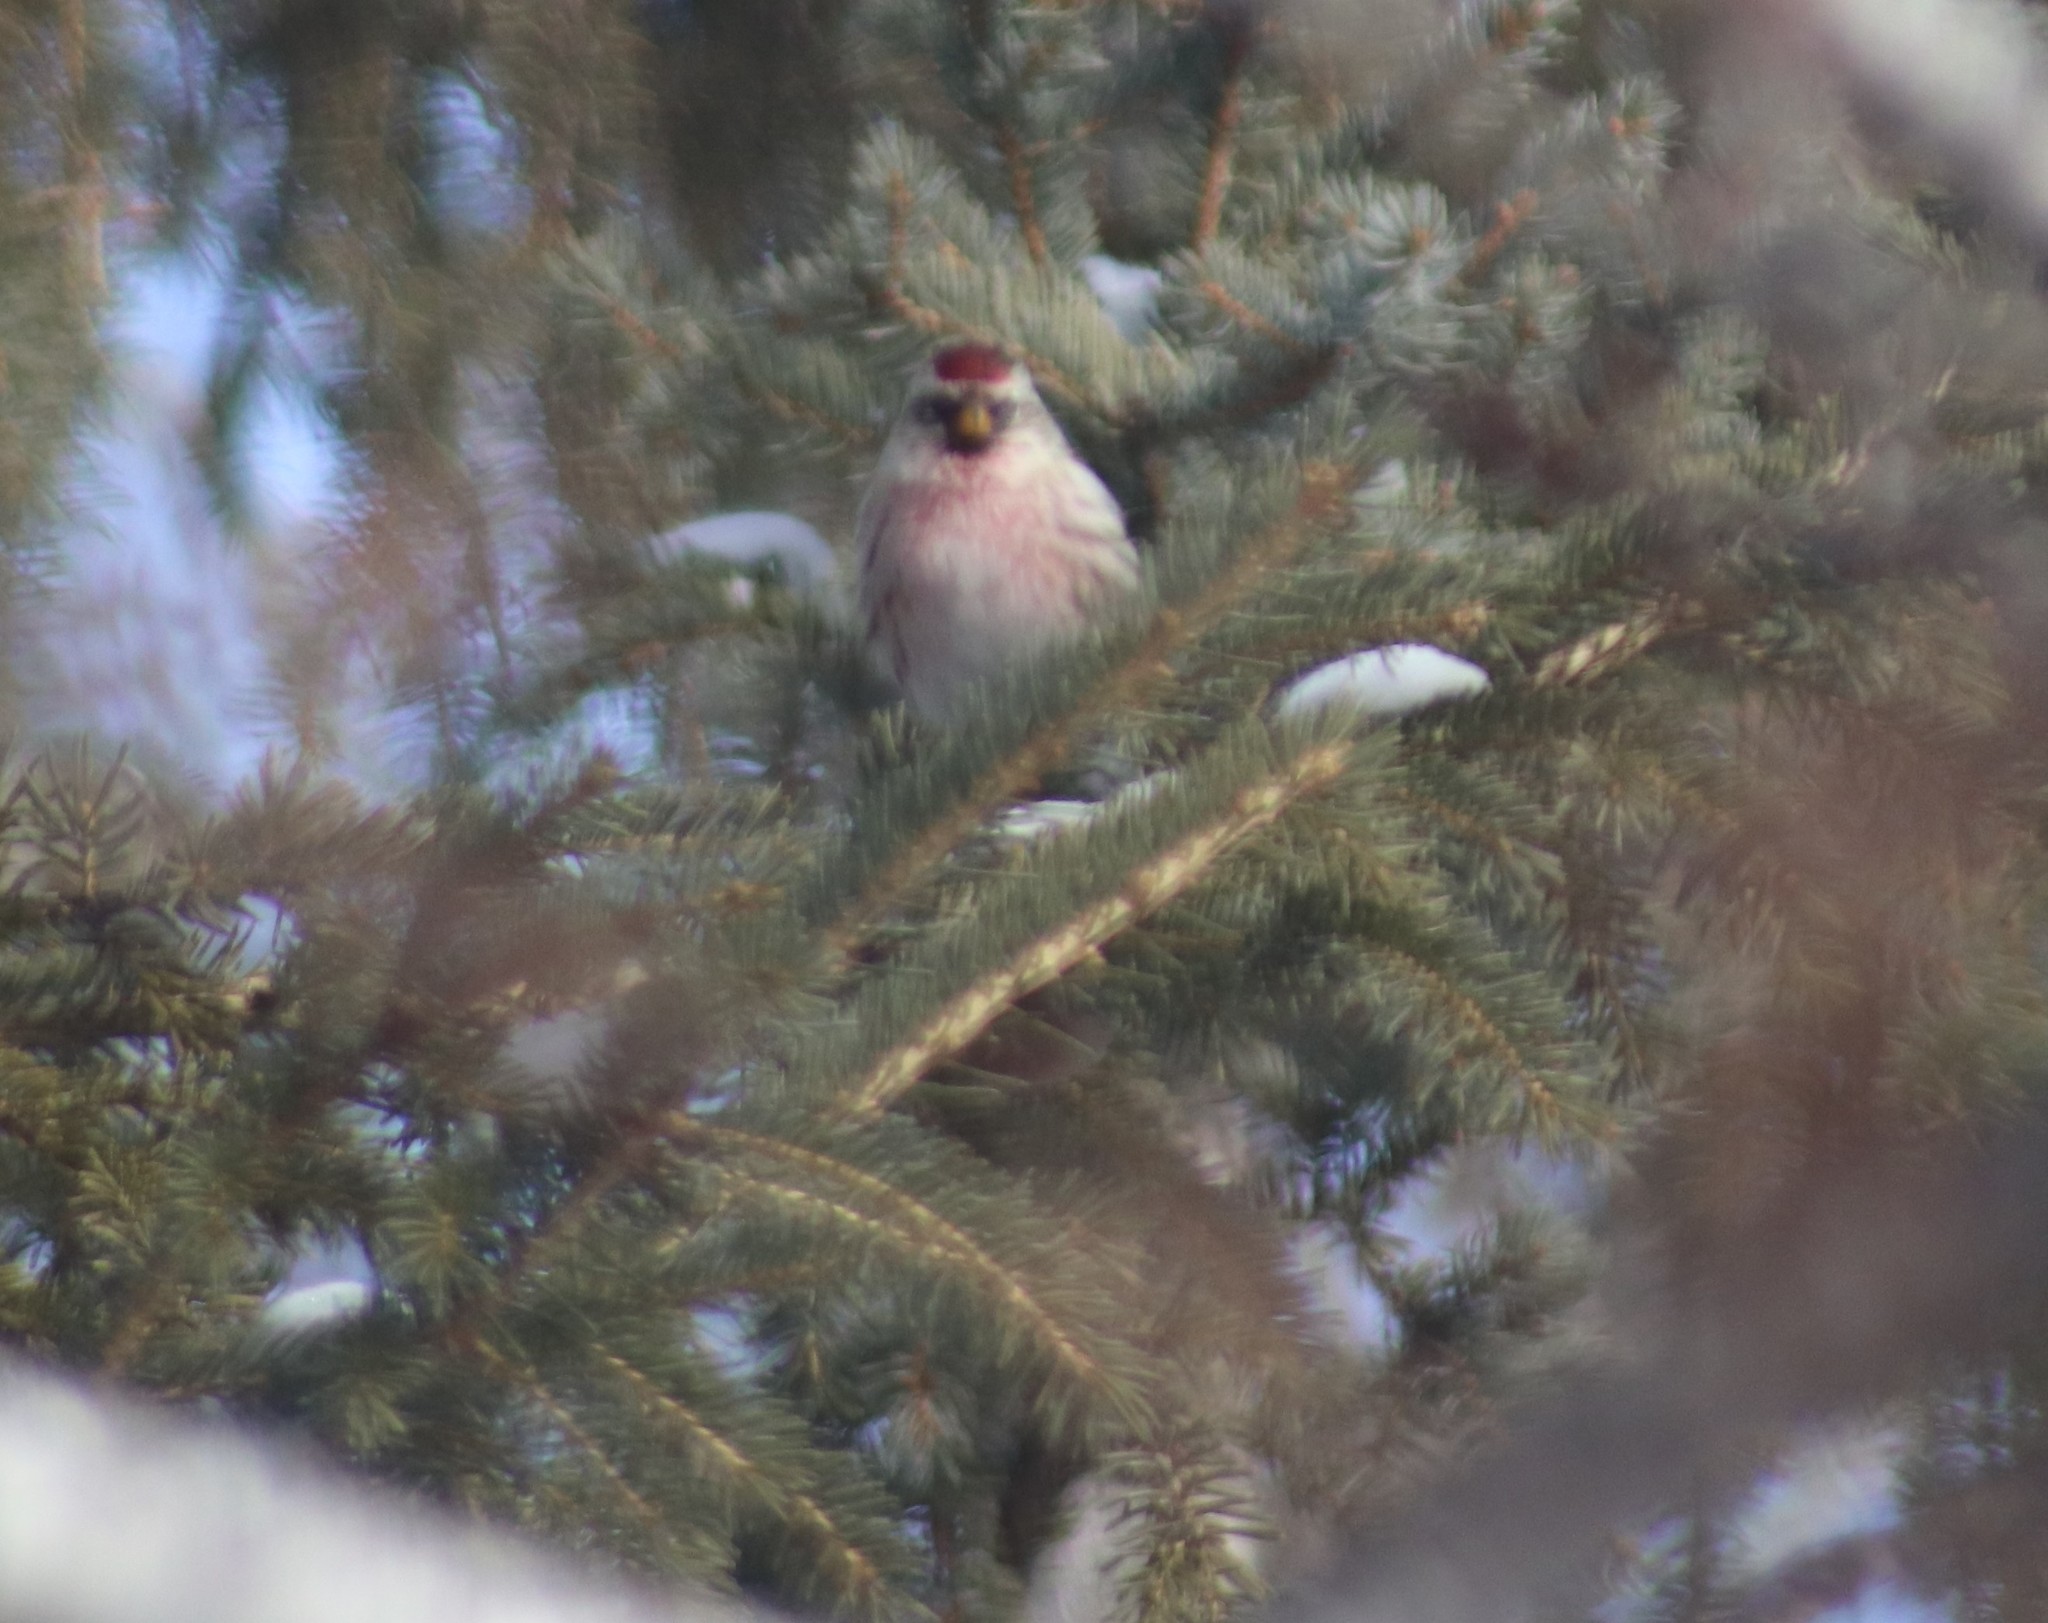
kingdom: Animalia
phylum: Chordata
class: Aves
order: Passeriformes
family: Fringillidae
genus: Acanthis
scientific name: Acanthis flammea
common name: Common redpoll
